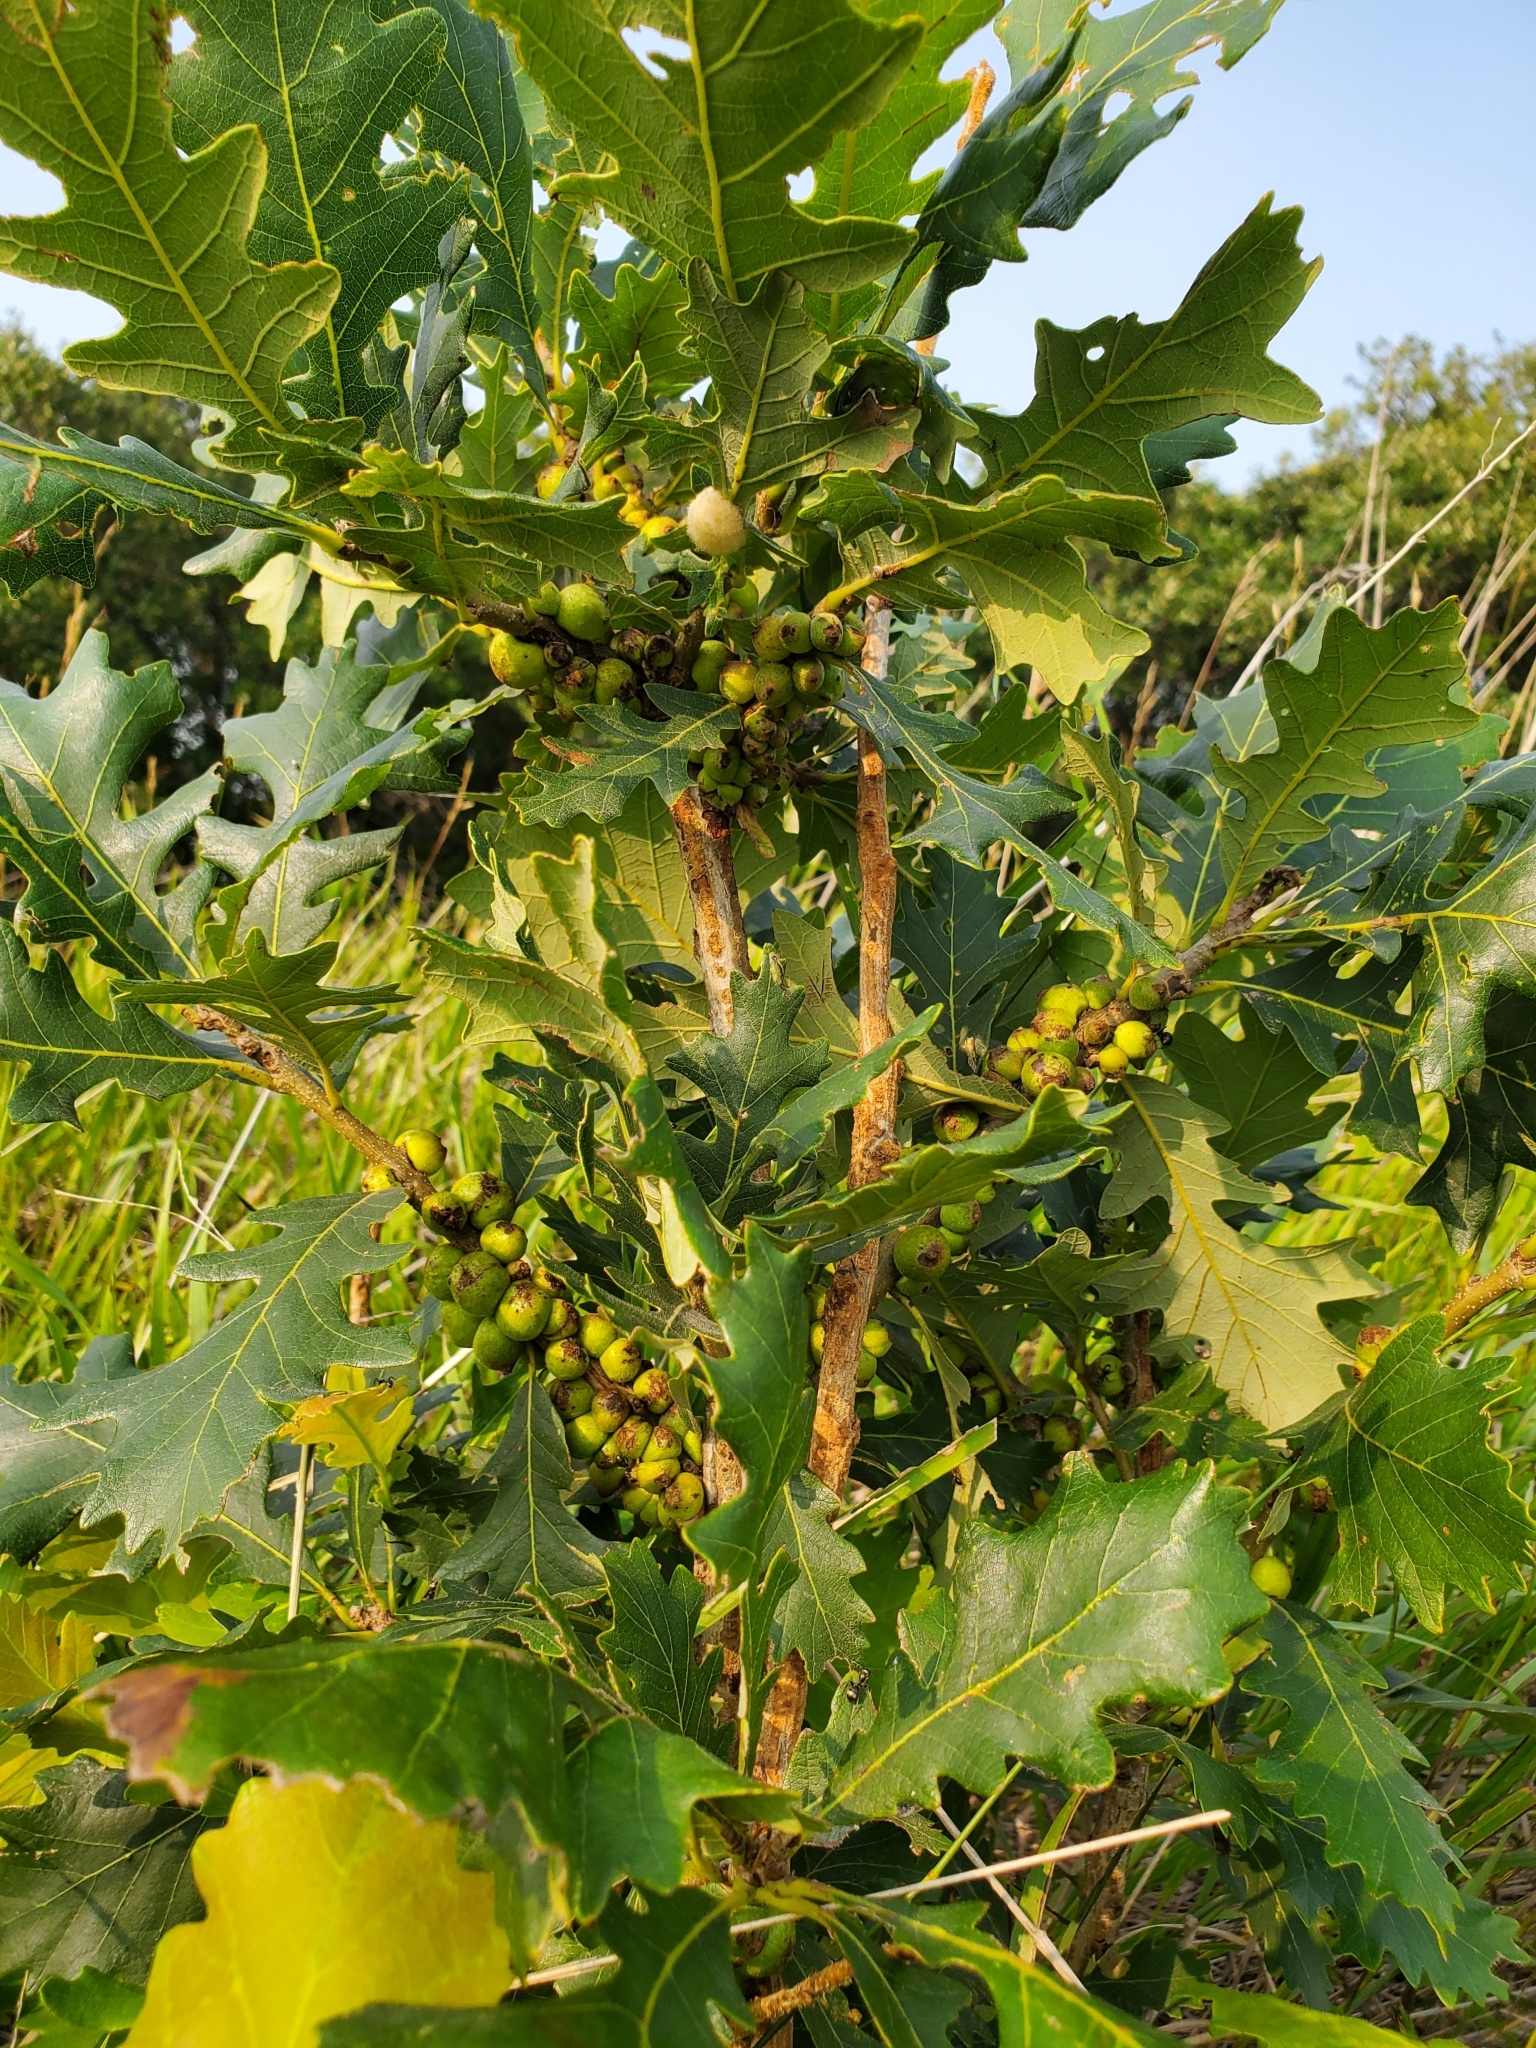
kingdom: Animalia
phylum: Arthropoda
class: Insecta
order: Hymenoptera
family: Cynipidae
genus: Disholcaspis
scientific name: Disholcaspis
